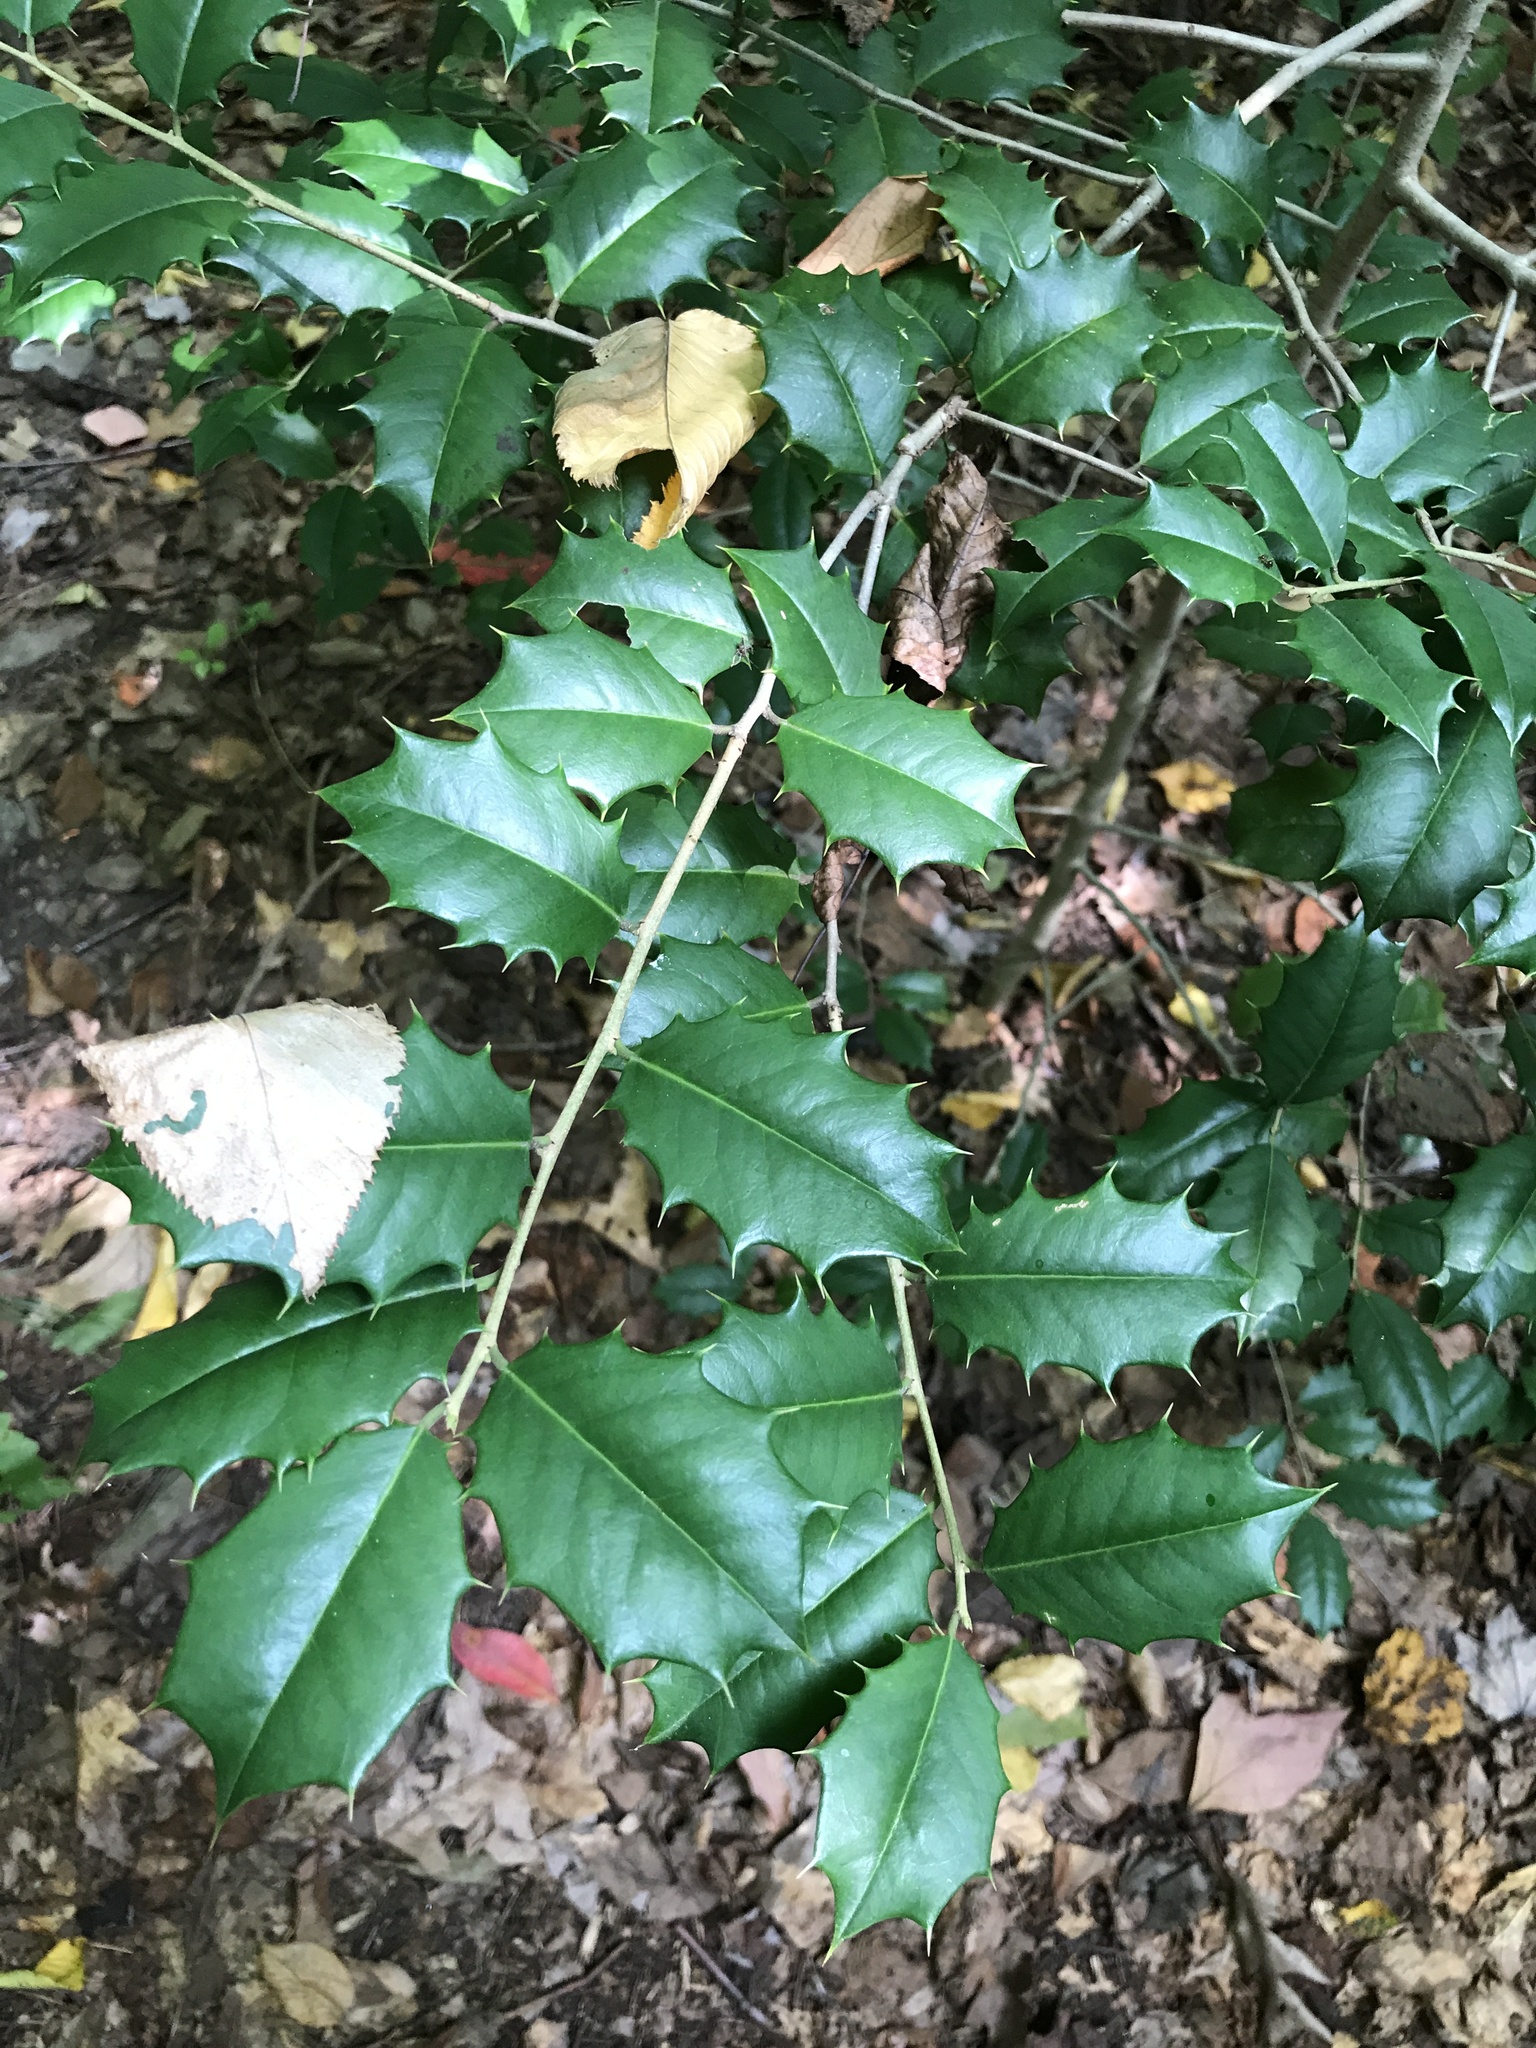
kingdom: Plantae
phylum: Tracheophyta
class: Magnoliopsida
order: Aquifoliales
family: Aquifoliaceae
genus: Ilex
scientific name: Ilex opaca
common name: American holly
